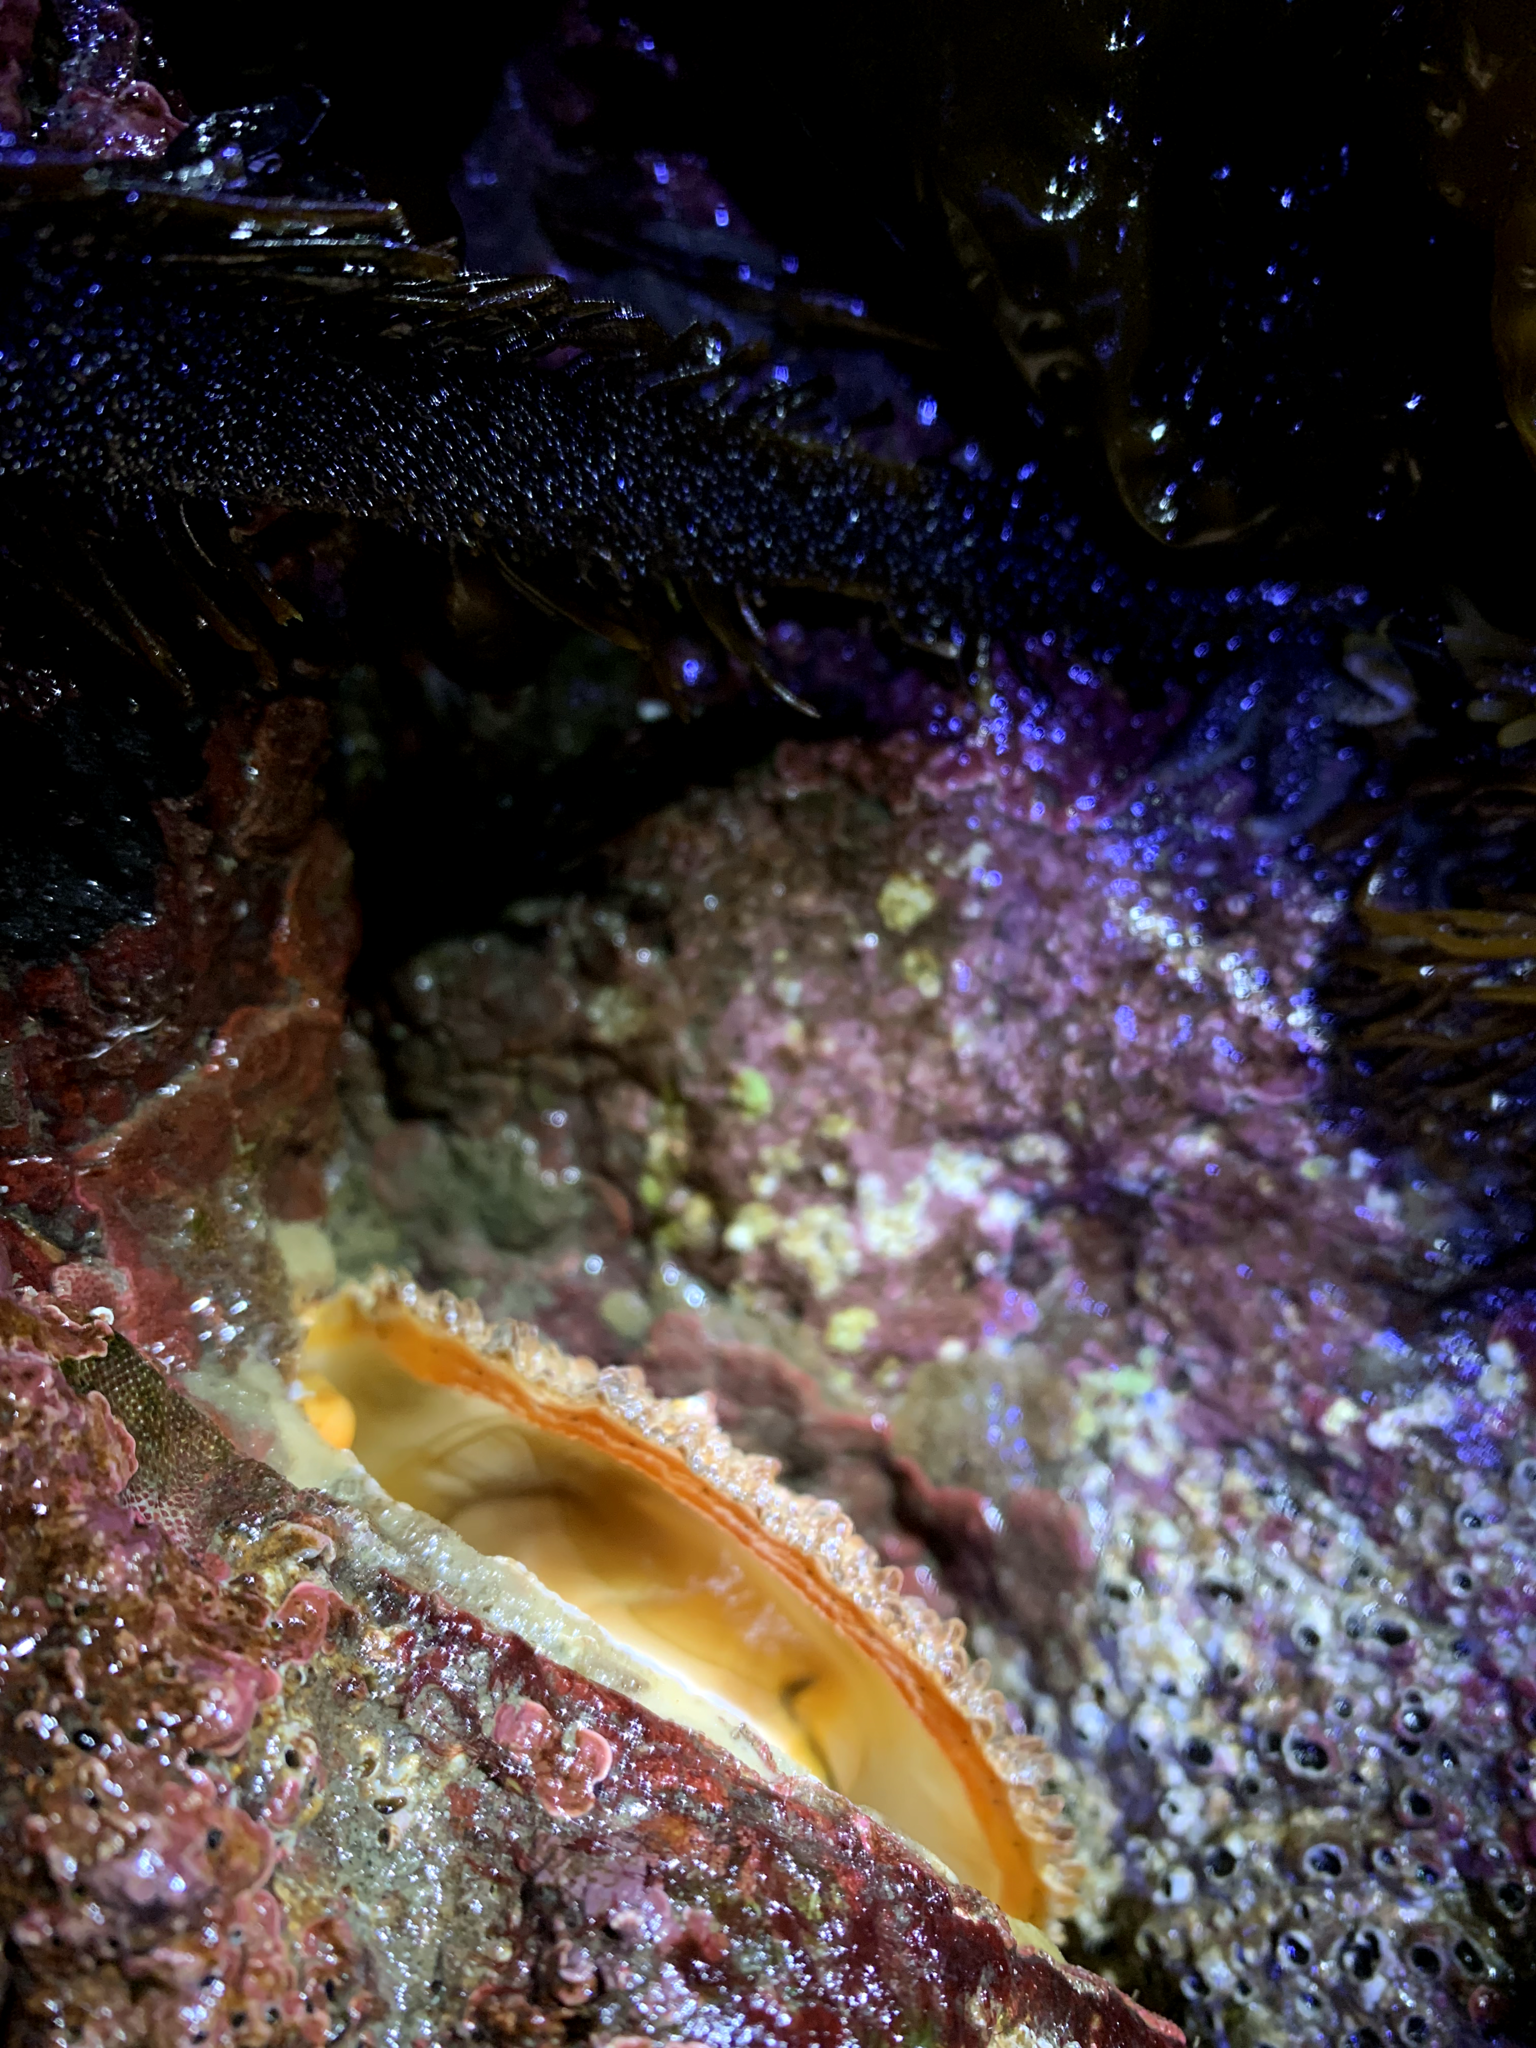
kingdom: Animalia
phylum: Mollusca
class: Bivalvia
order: Pectinida
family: Pectinidae
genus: Crassadoma
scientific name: Crassadoma gigantea
